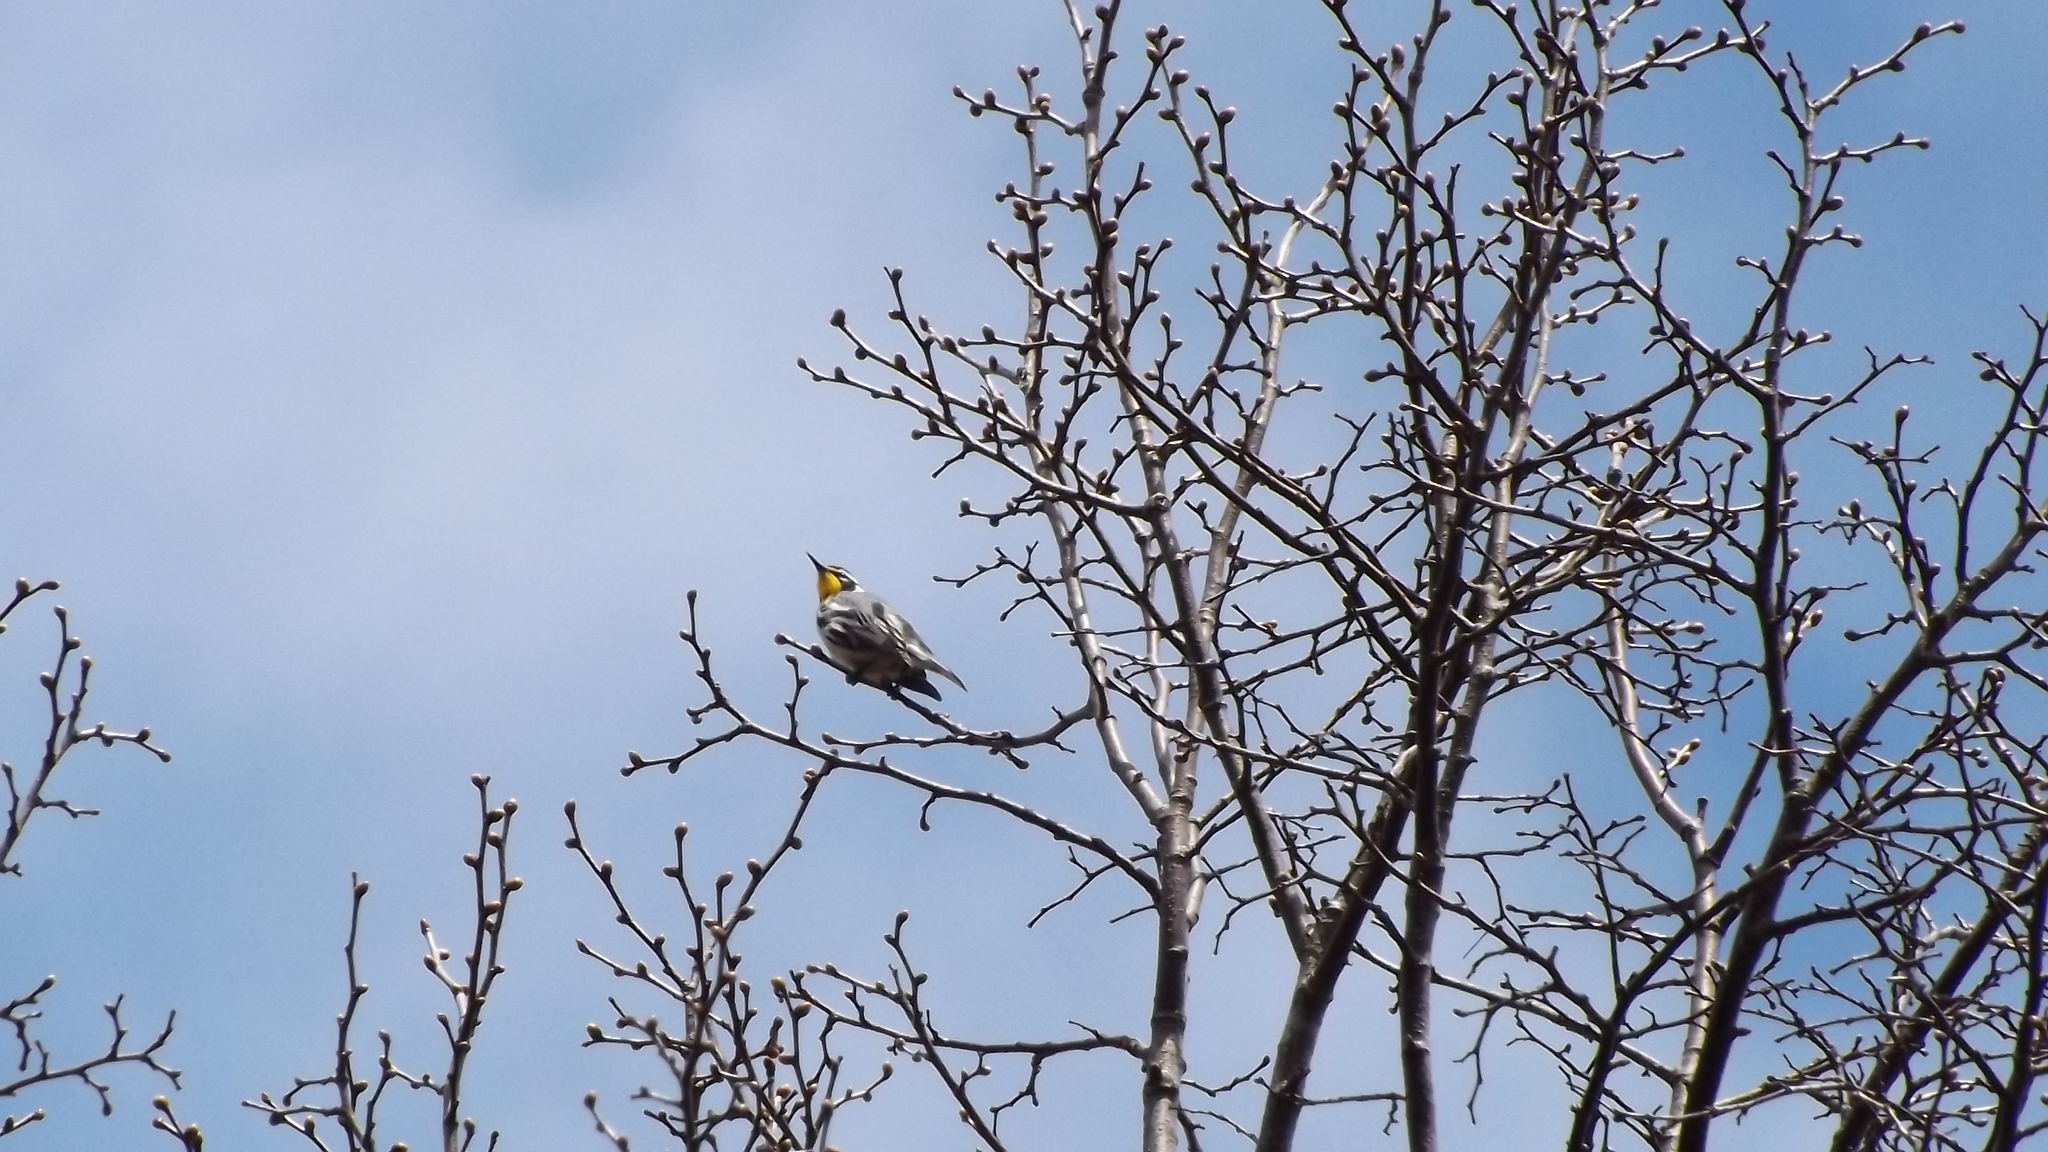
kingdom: Animalia
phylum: Chordata
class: Aves
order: Passeriformes
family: Parulidae
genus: Setophaga
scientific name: Setophaga dominica
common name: Yellow-throated warbler
